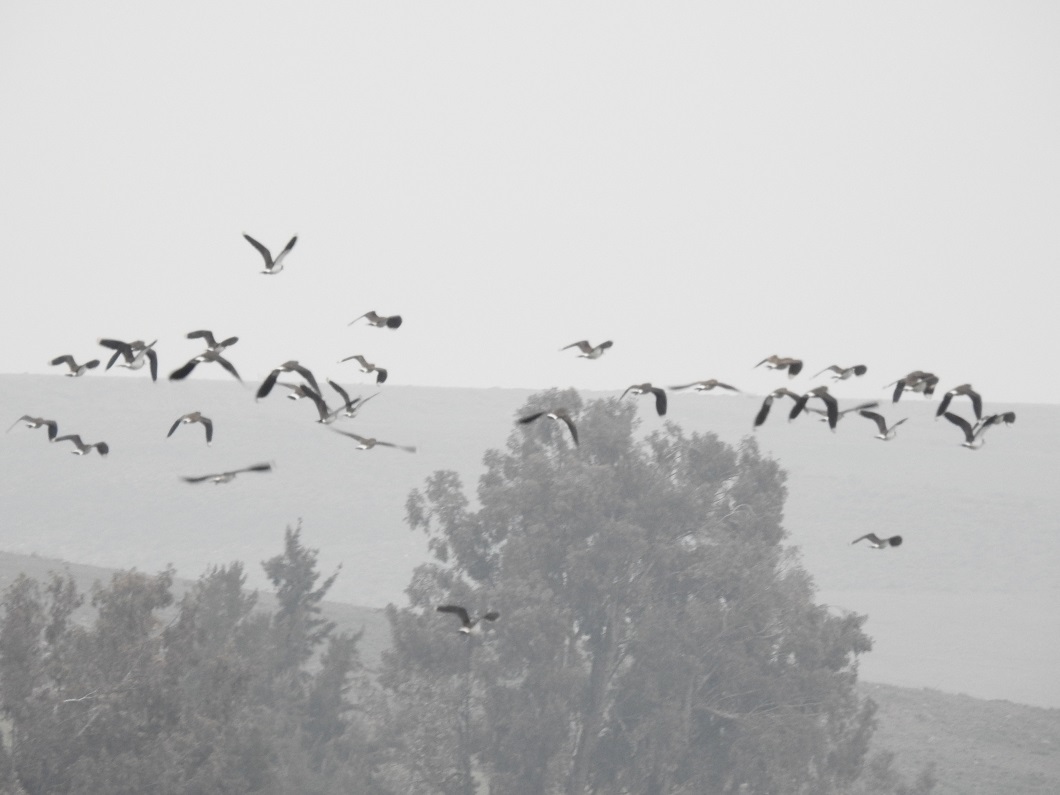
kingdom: Animalia
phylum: Chordata
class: Aves
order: Charadriiformes
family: Charadriidae
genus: Vanellus
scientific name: Vanellus vanellus
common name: Northern lapwing
